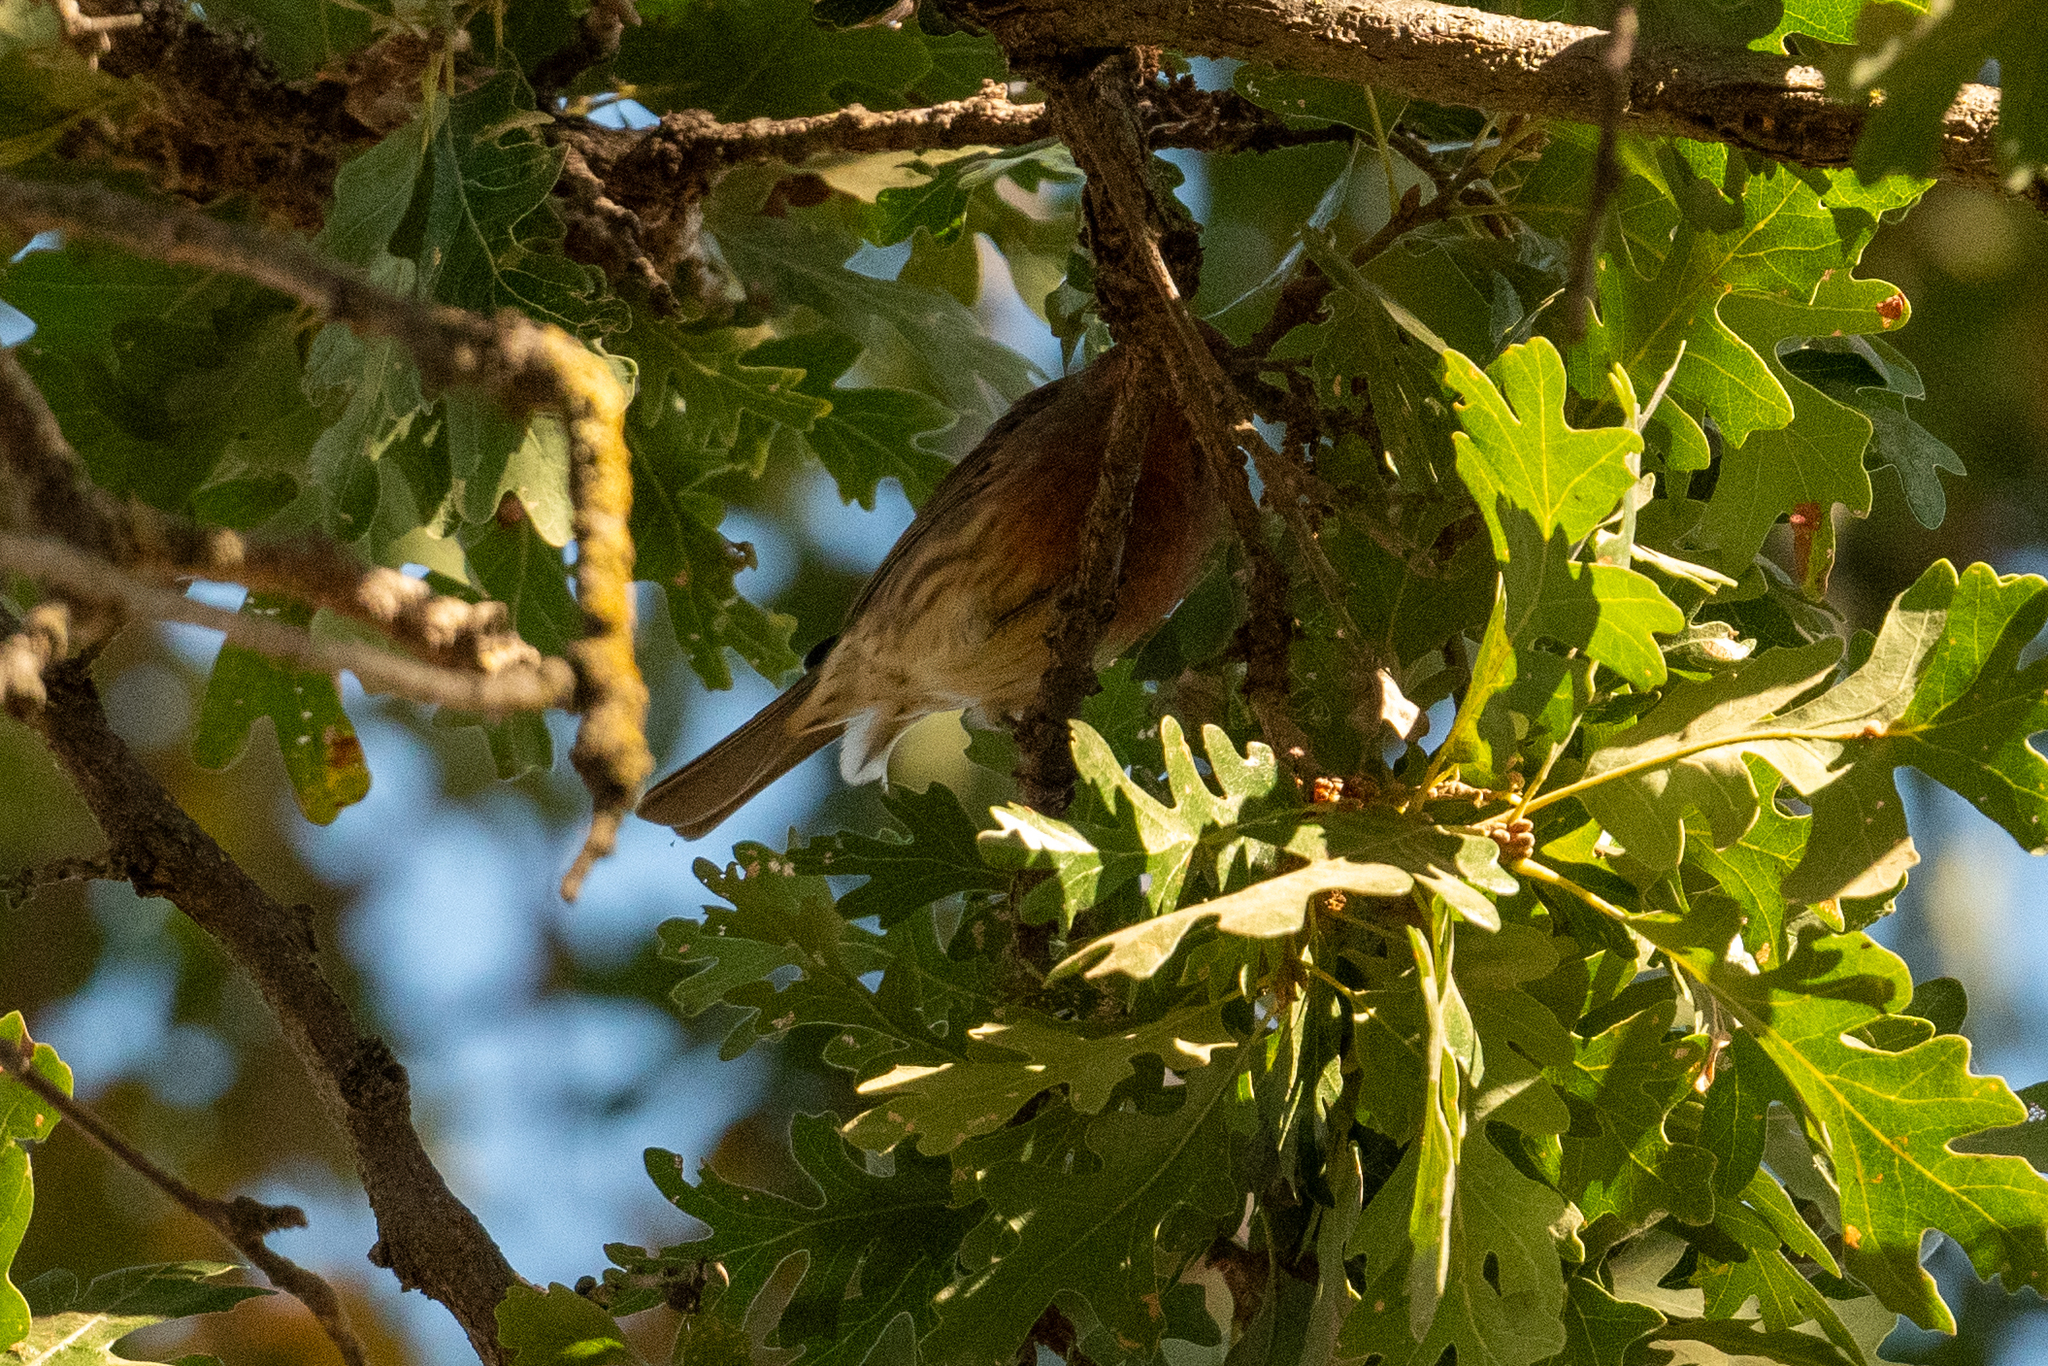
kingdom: Animalia
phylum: Chordata
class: Aves
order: Passeriformes
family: Fringillidae
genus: Haemorhous
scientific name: Haemorhous mexicanus
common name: House finch
